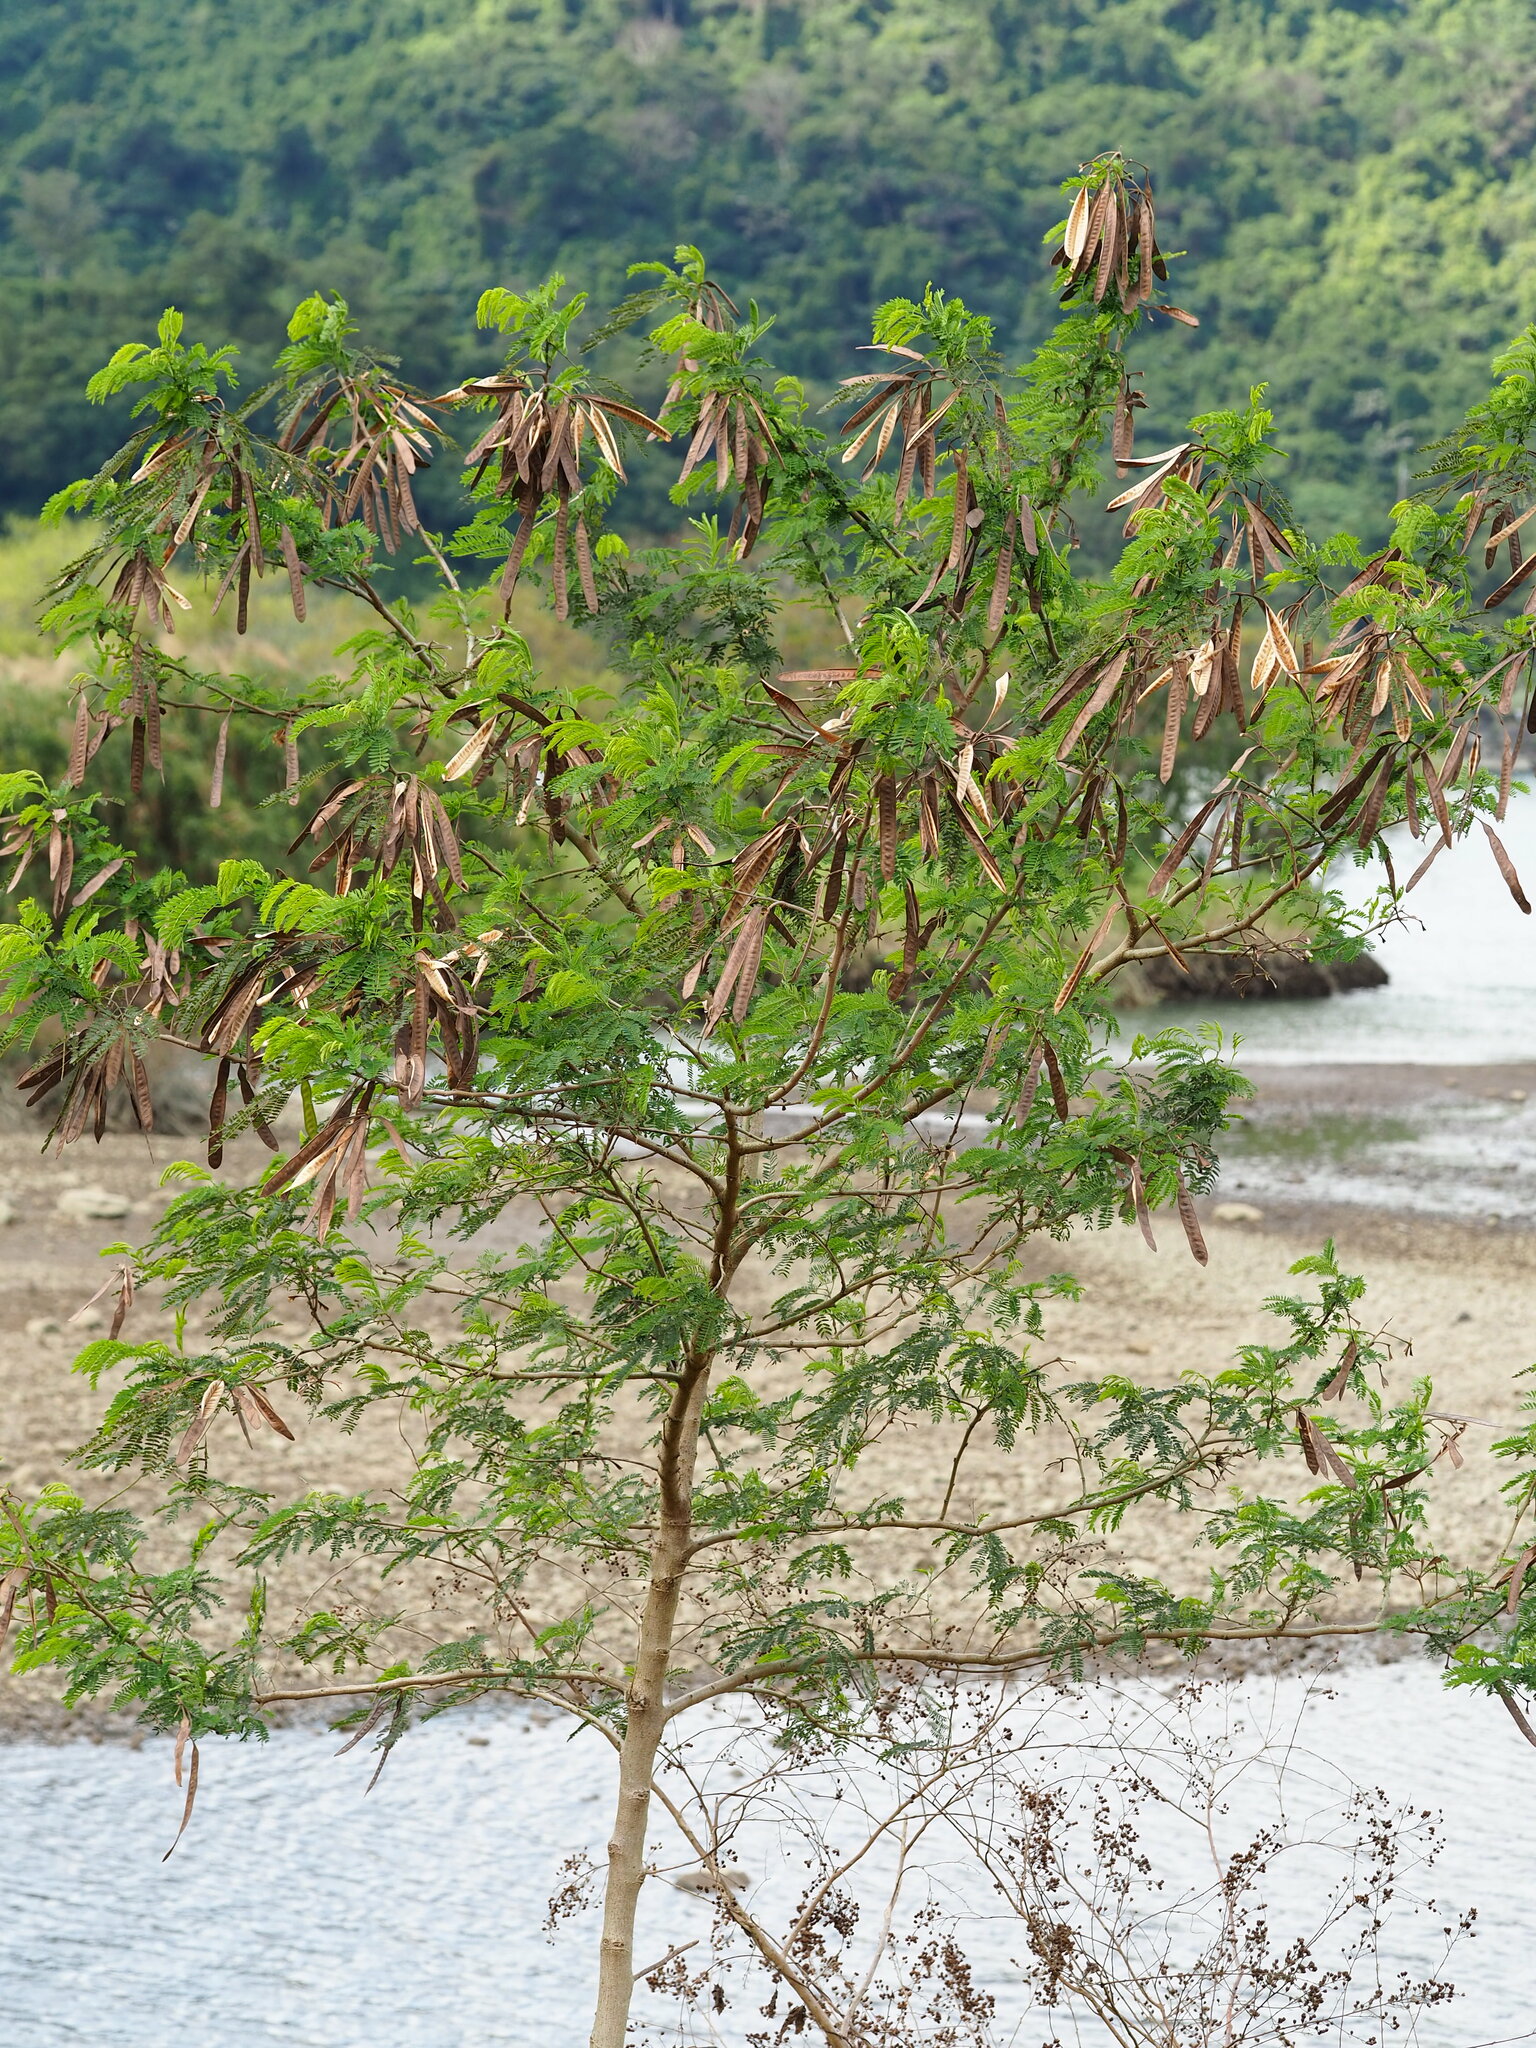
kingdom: Plantae
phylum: Tracheophyta
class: Magnoliopsida
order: Fabales
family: Fabaceae
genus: Leucaena
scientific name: Leucaena leucocephala
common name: White leadtree
